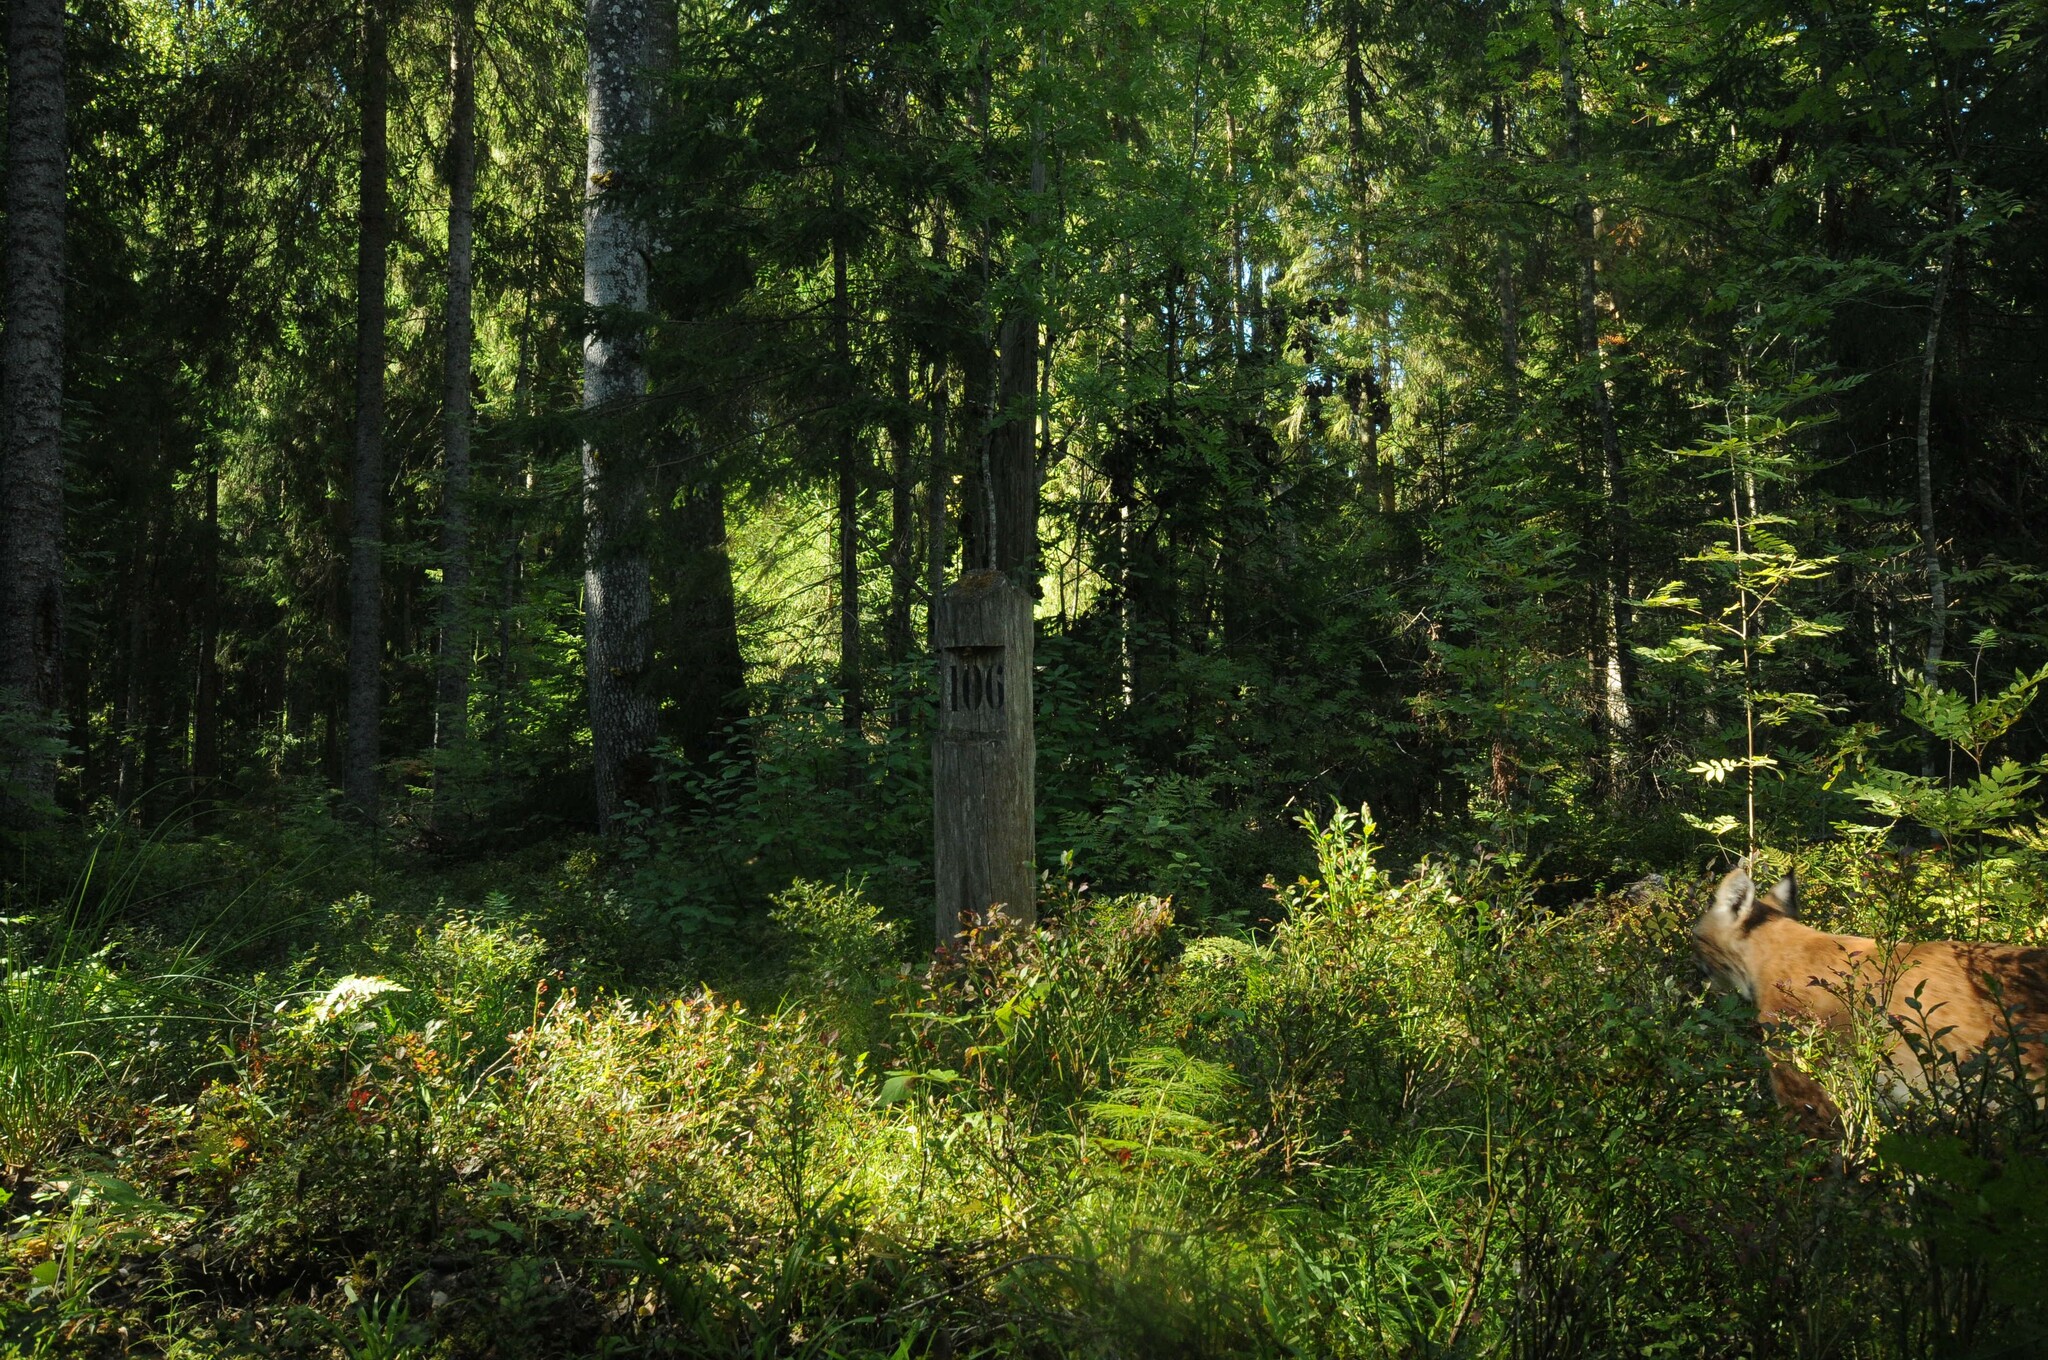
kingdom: Animalia
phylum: Chordata
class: Mammalia
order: Carnivora
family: Felidae
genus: Lynx
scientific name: Lynx lynx
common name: Eurasian lynx
